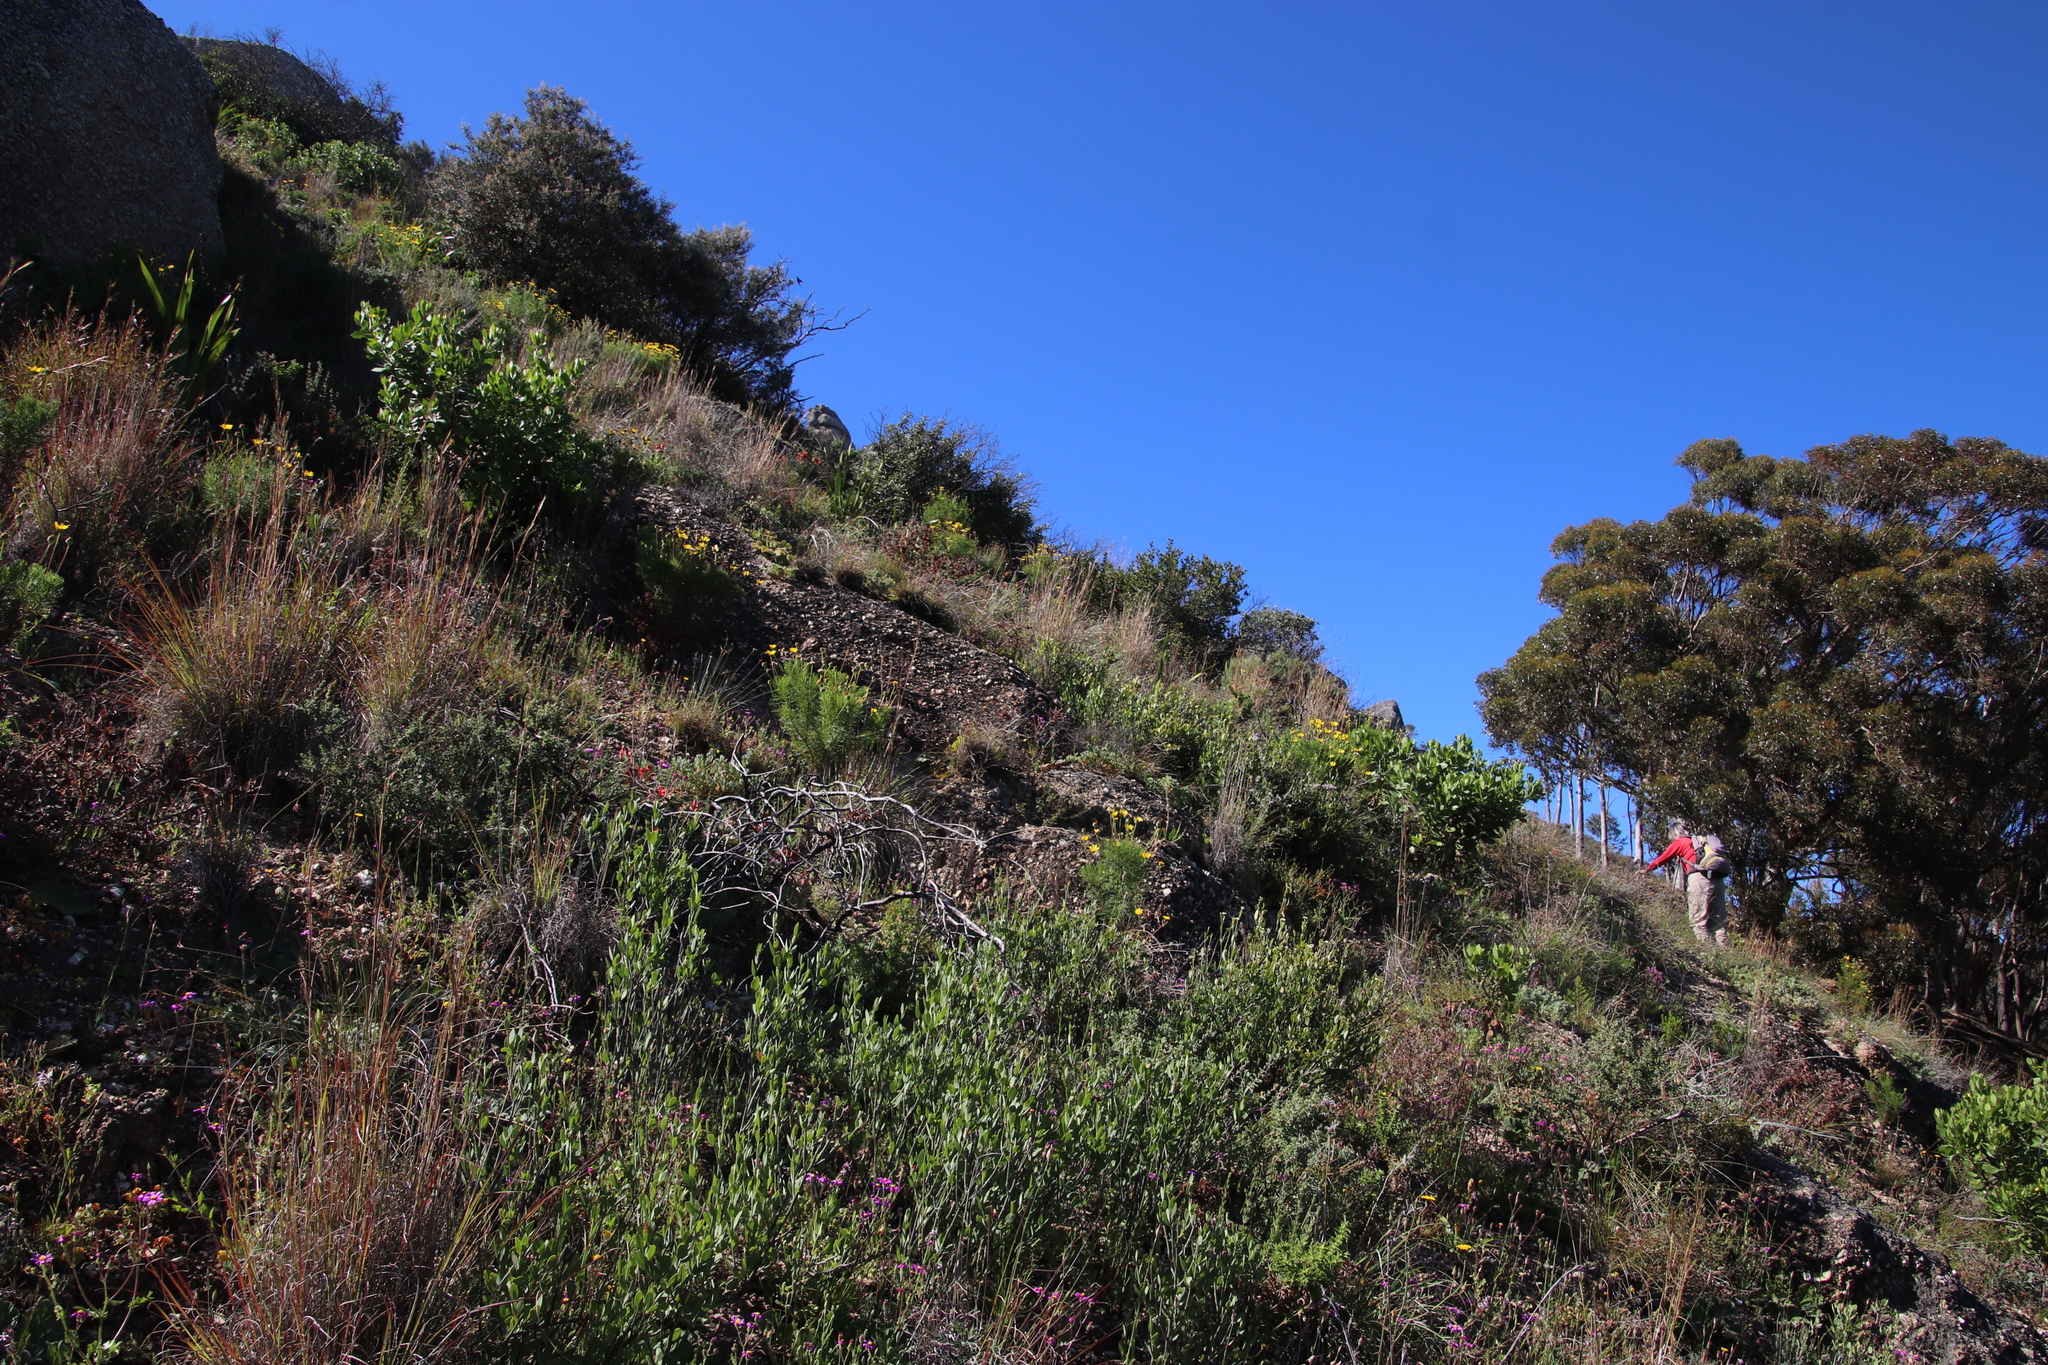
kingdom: Plantae
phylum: Tracheophyta
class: Magnoliopsida
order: Solanales
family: Montiniaceae
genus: Montinia
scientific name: Montinia caryophyllacea
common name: Wild clove-bush
